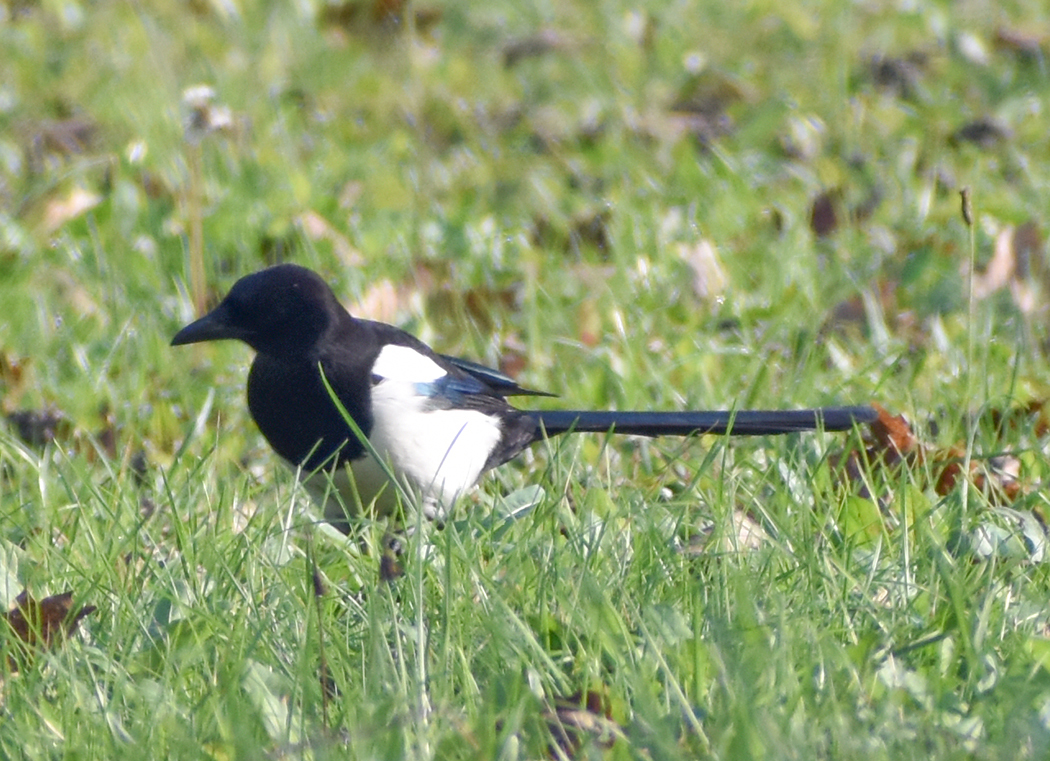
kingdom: Animalia
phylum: Chordata
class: Aves
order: Passeriformes
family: Corvidae
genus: Pica
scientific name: Pica pica
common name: Eurasian magpie
